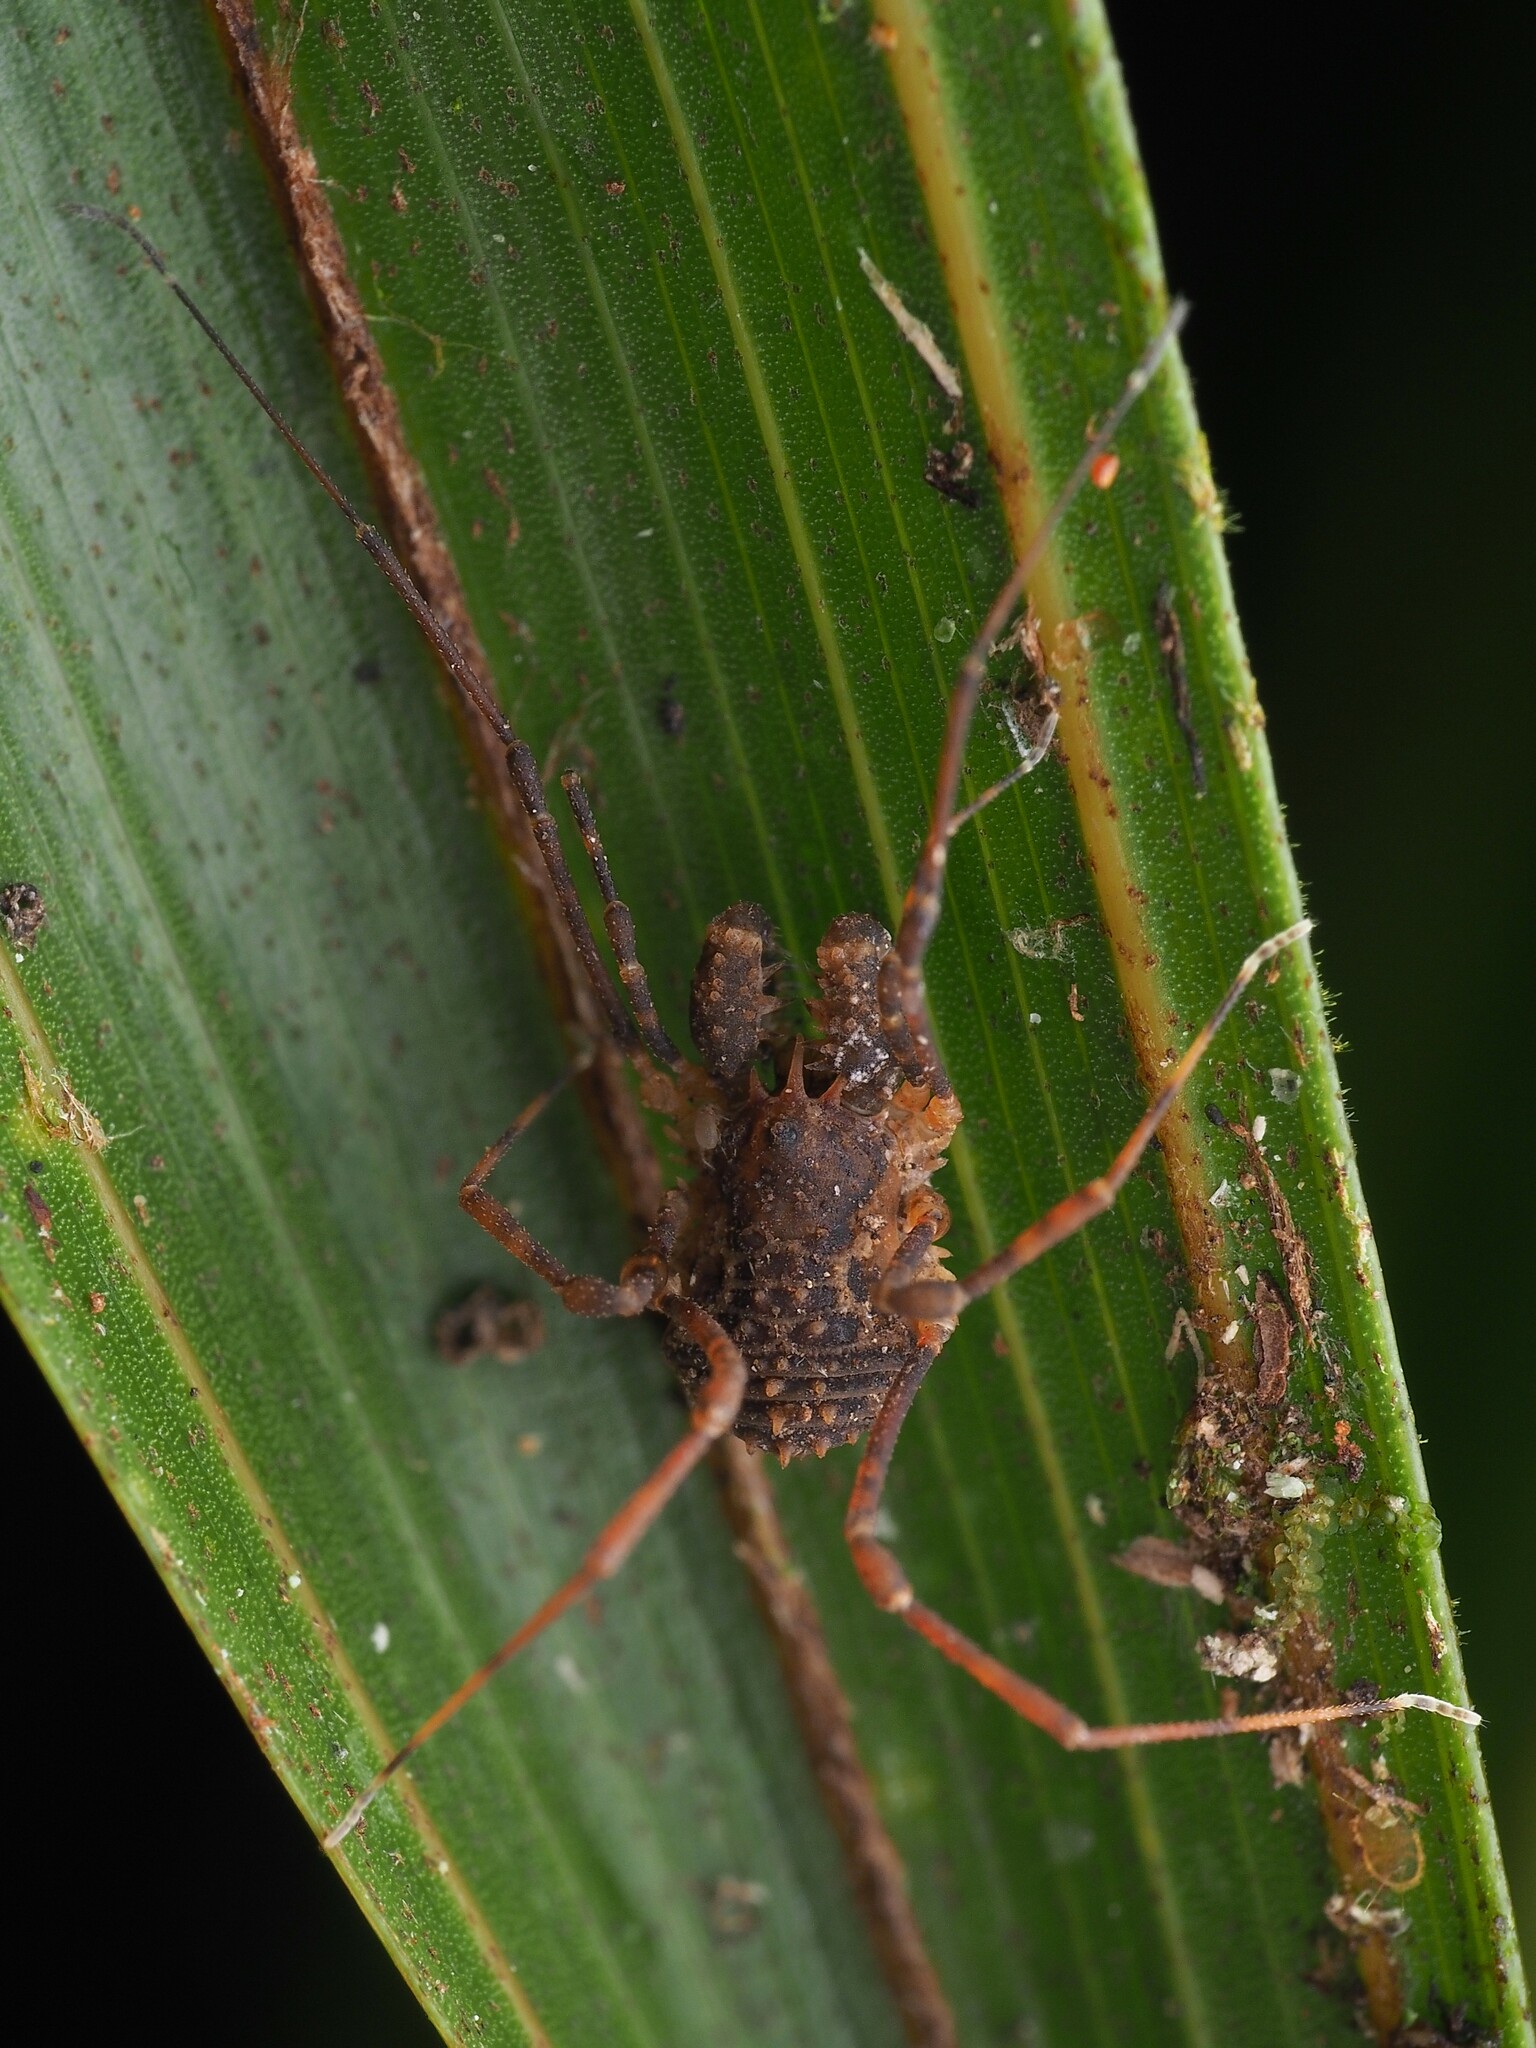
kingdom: Animalia
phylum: Arthropoda
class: Arachnida
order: Opiliones
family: Triaenonychidae
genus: Algidia
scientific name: Algidia chiltoni
